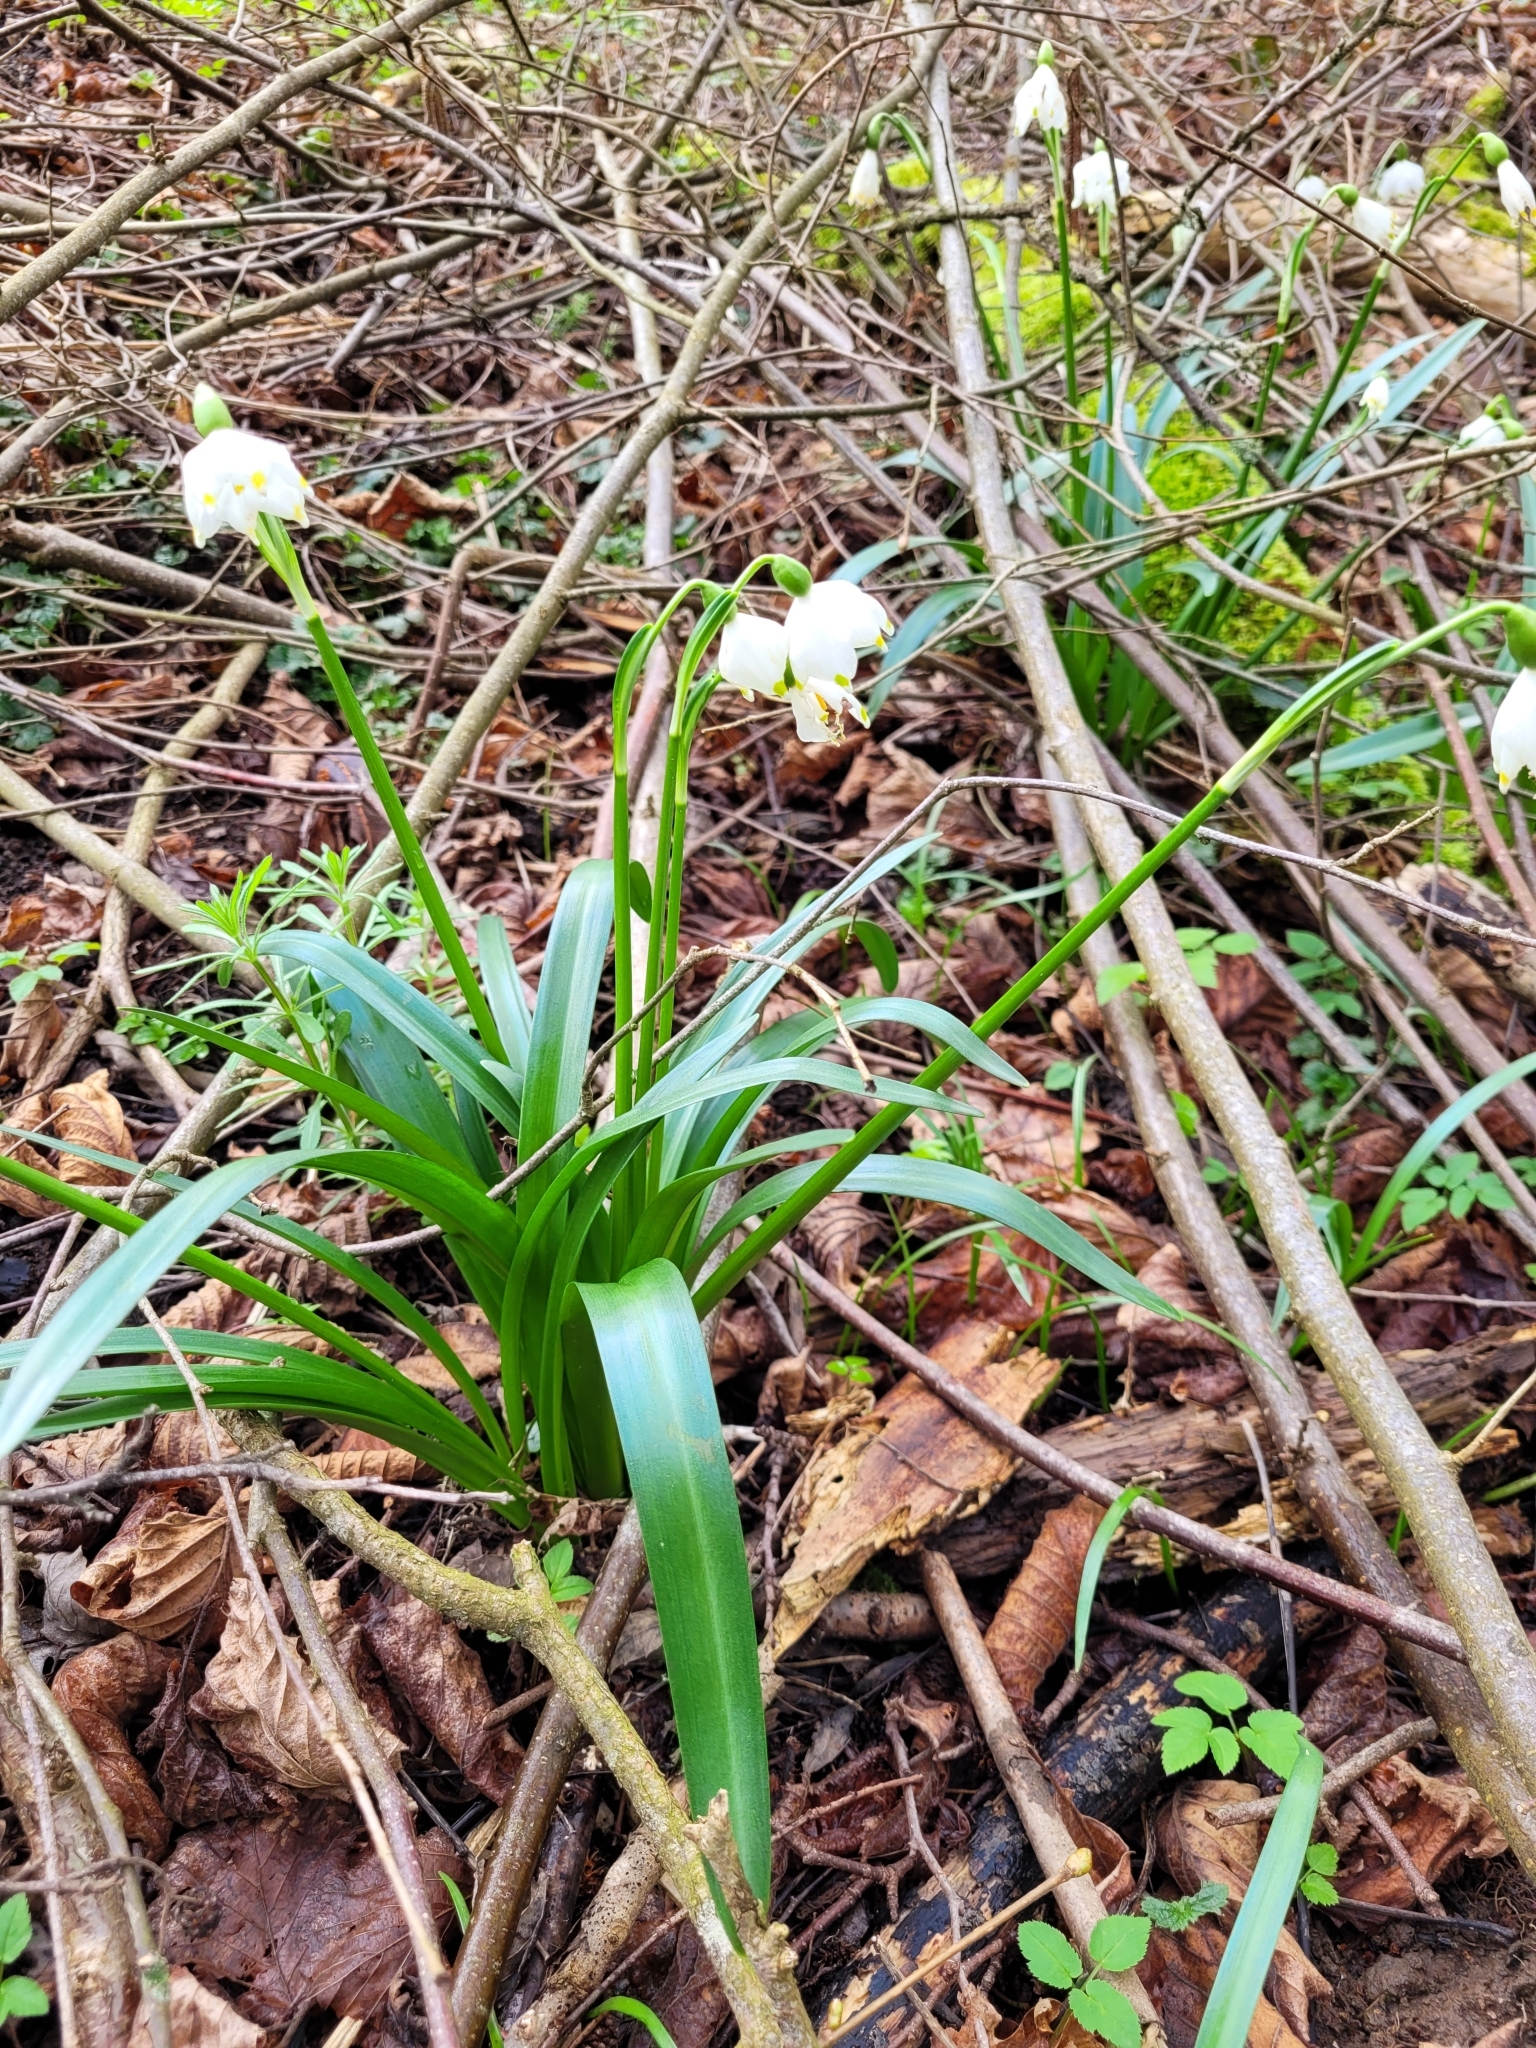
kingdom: Plantae
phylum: Tracheophyta
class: Liliopsida
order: Asparagales
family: Amaryllidaceae
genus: Leucojum
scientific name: Leucojum vernum
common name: Spring snowflake
